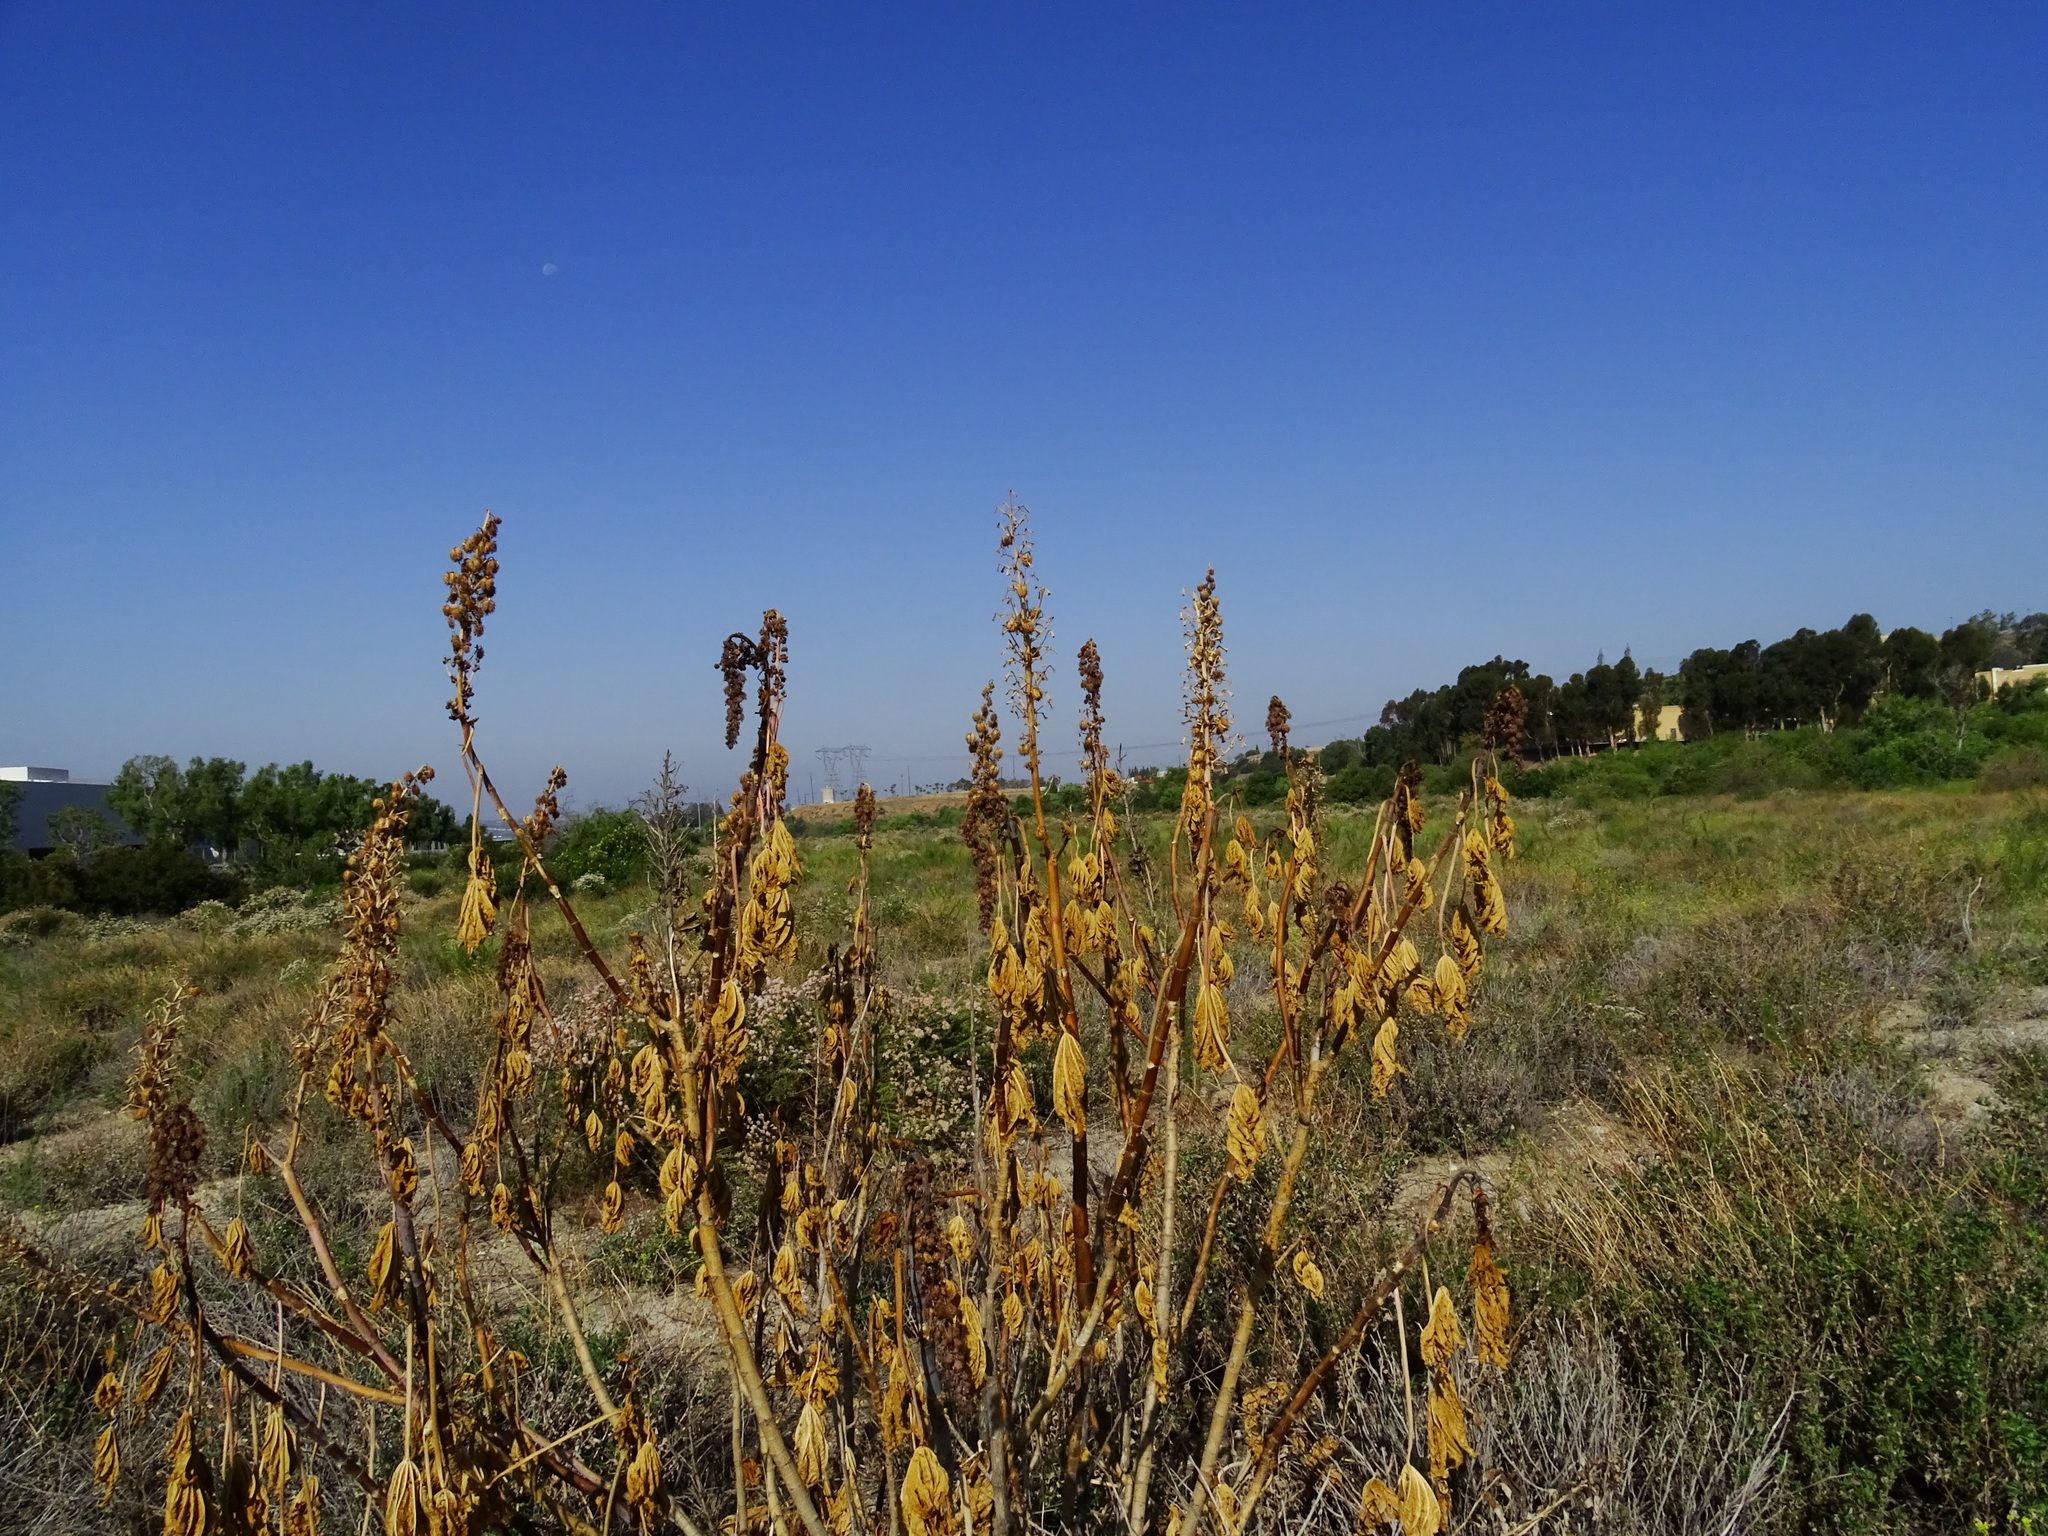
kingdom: Plantae
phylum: Tracheophyta
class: Magnoliopsida
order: Malpighiales
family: Euphorbiaceae
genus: Ricinus
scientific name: Ricinus communis
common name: Castor-oil-plant
